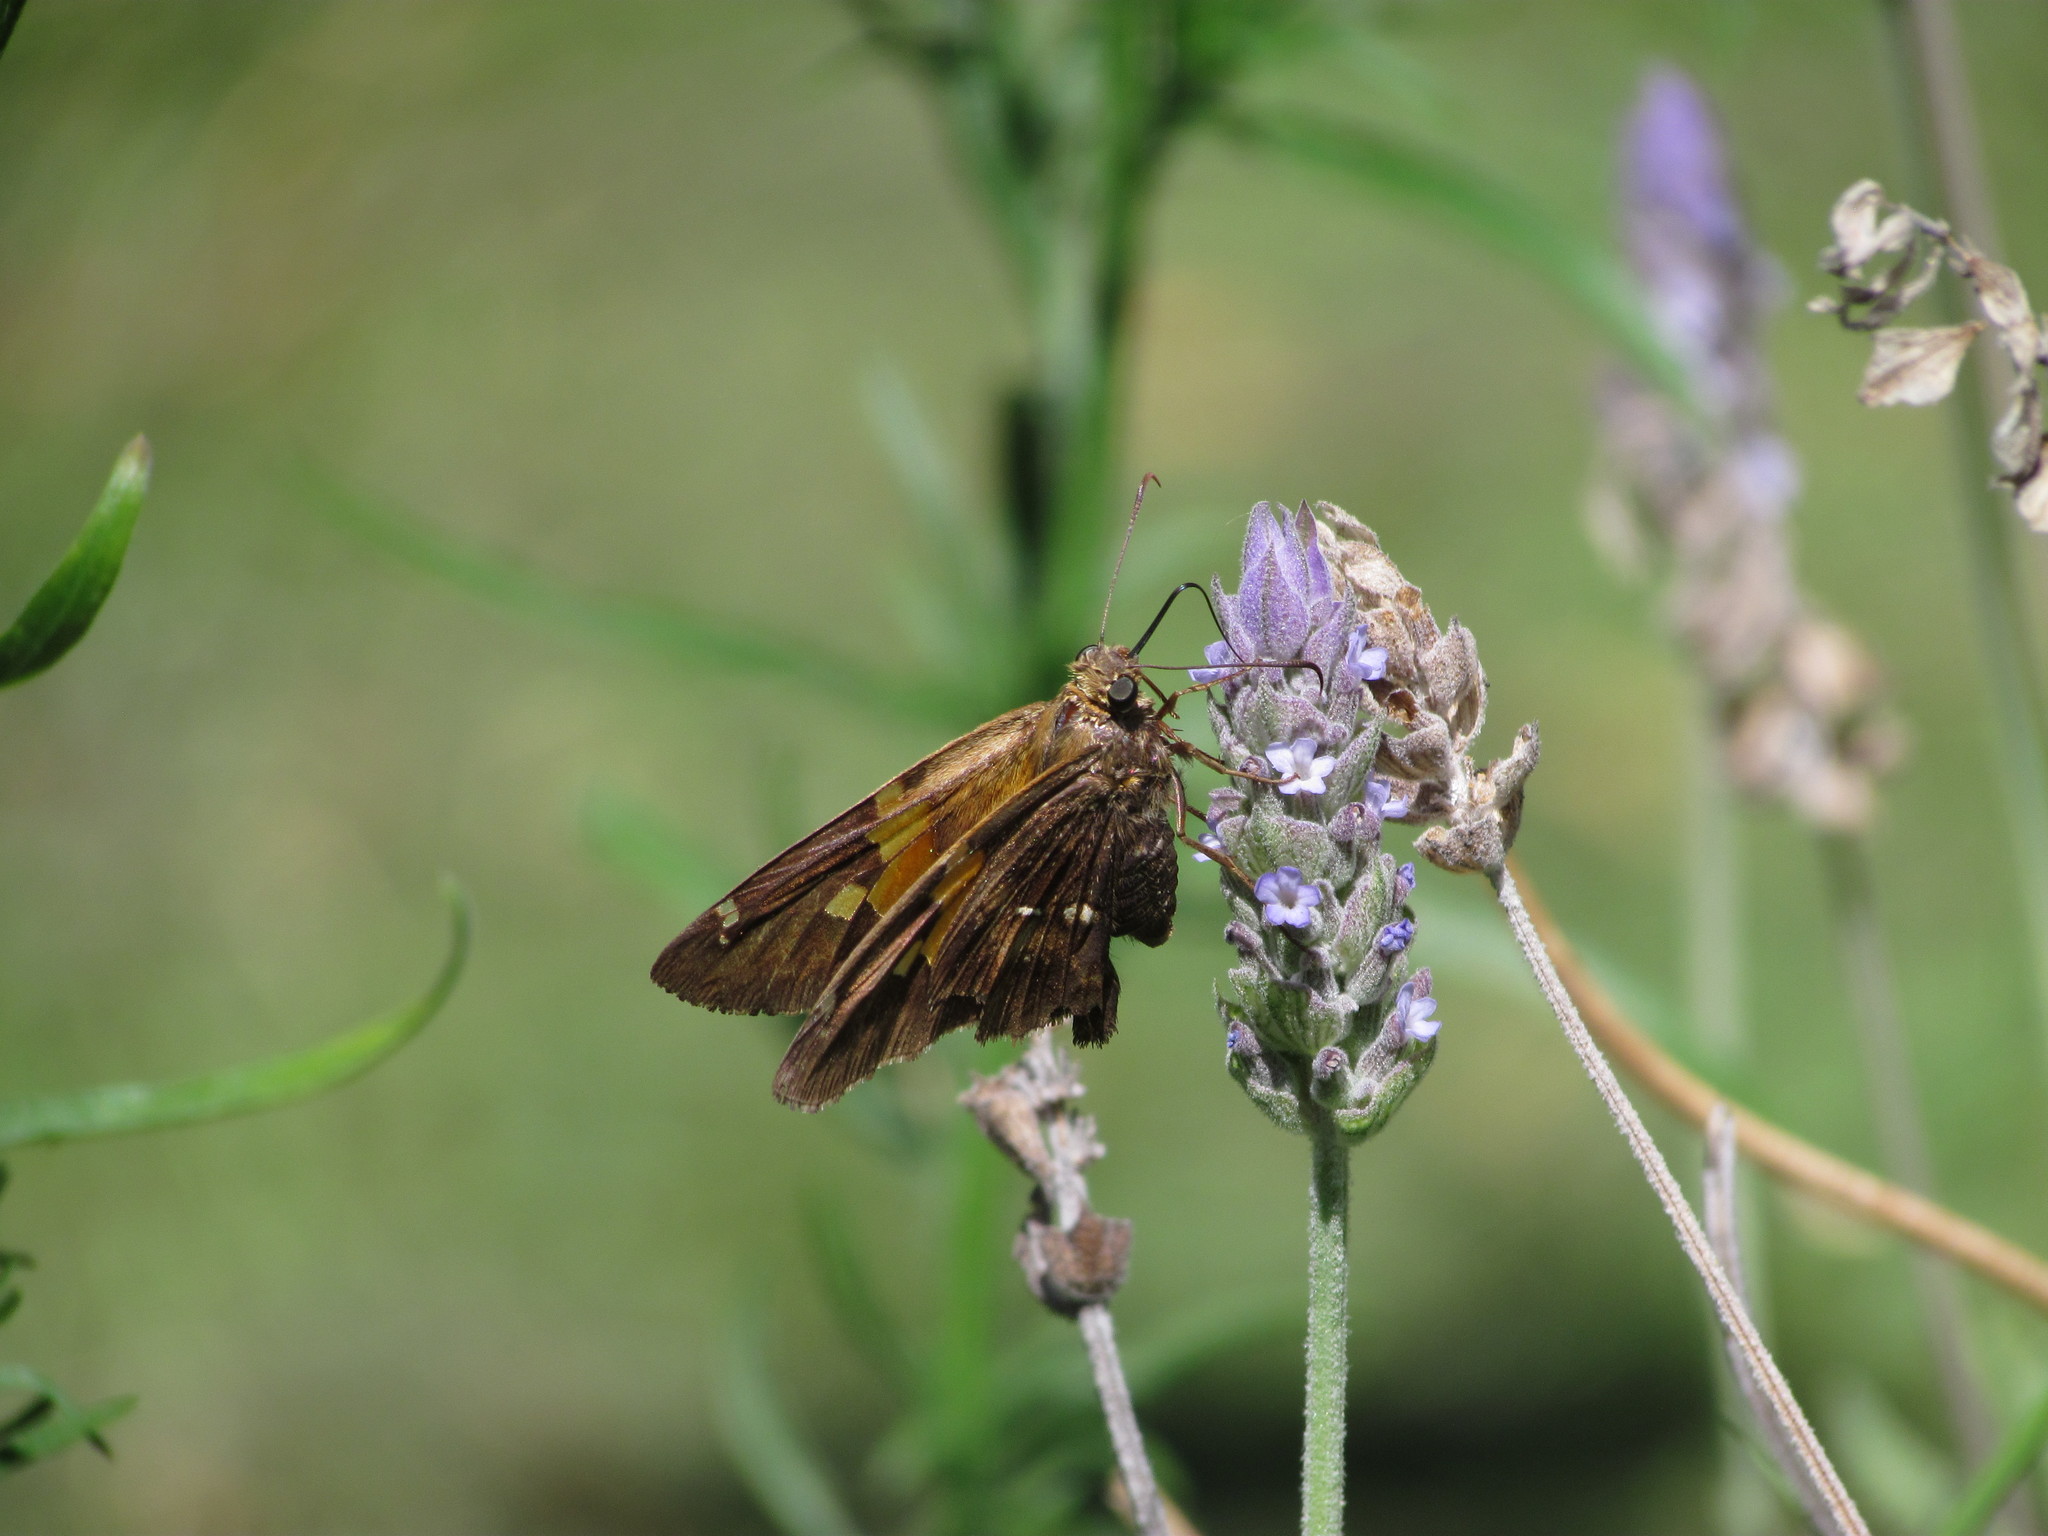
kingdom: Animalia
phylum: Arthropoda
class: Insecta
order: Lepidoptera
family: Hesperiidae
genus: Epargyreus
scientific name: Epargyreus tmolis
